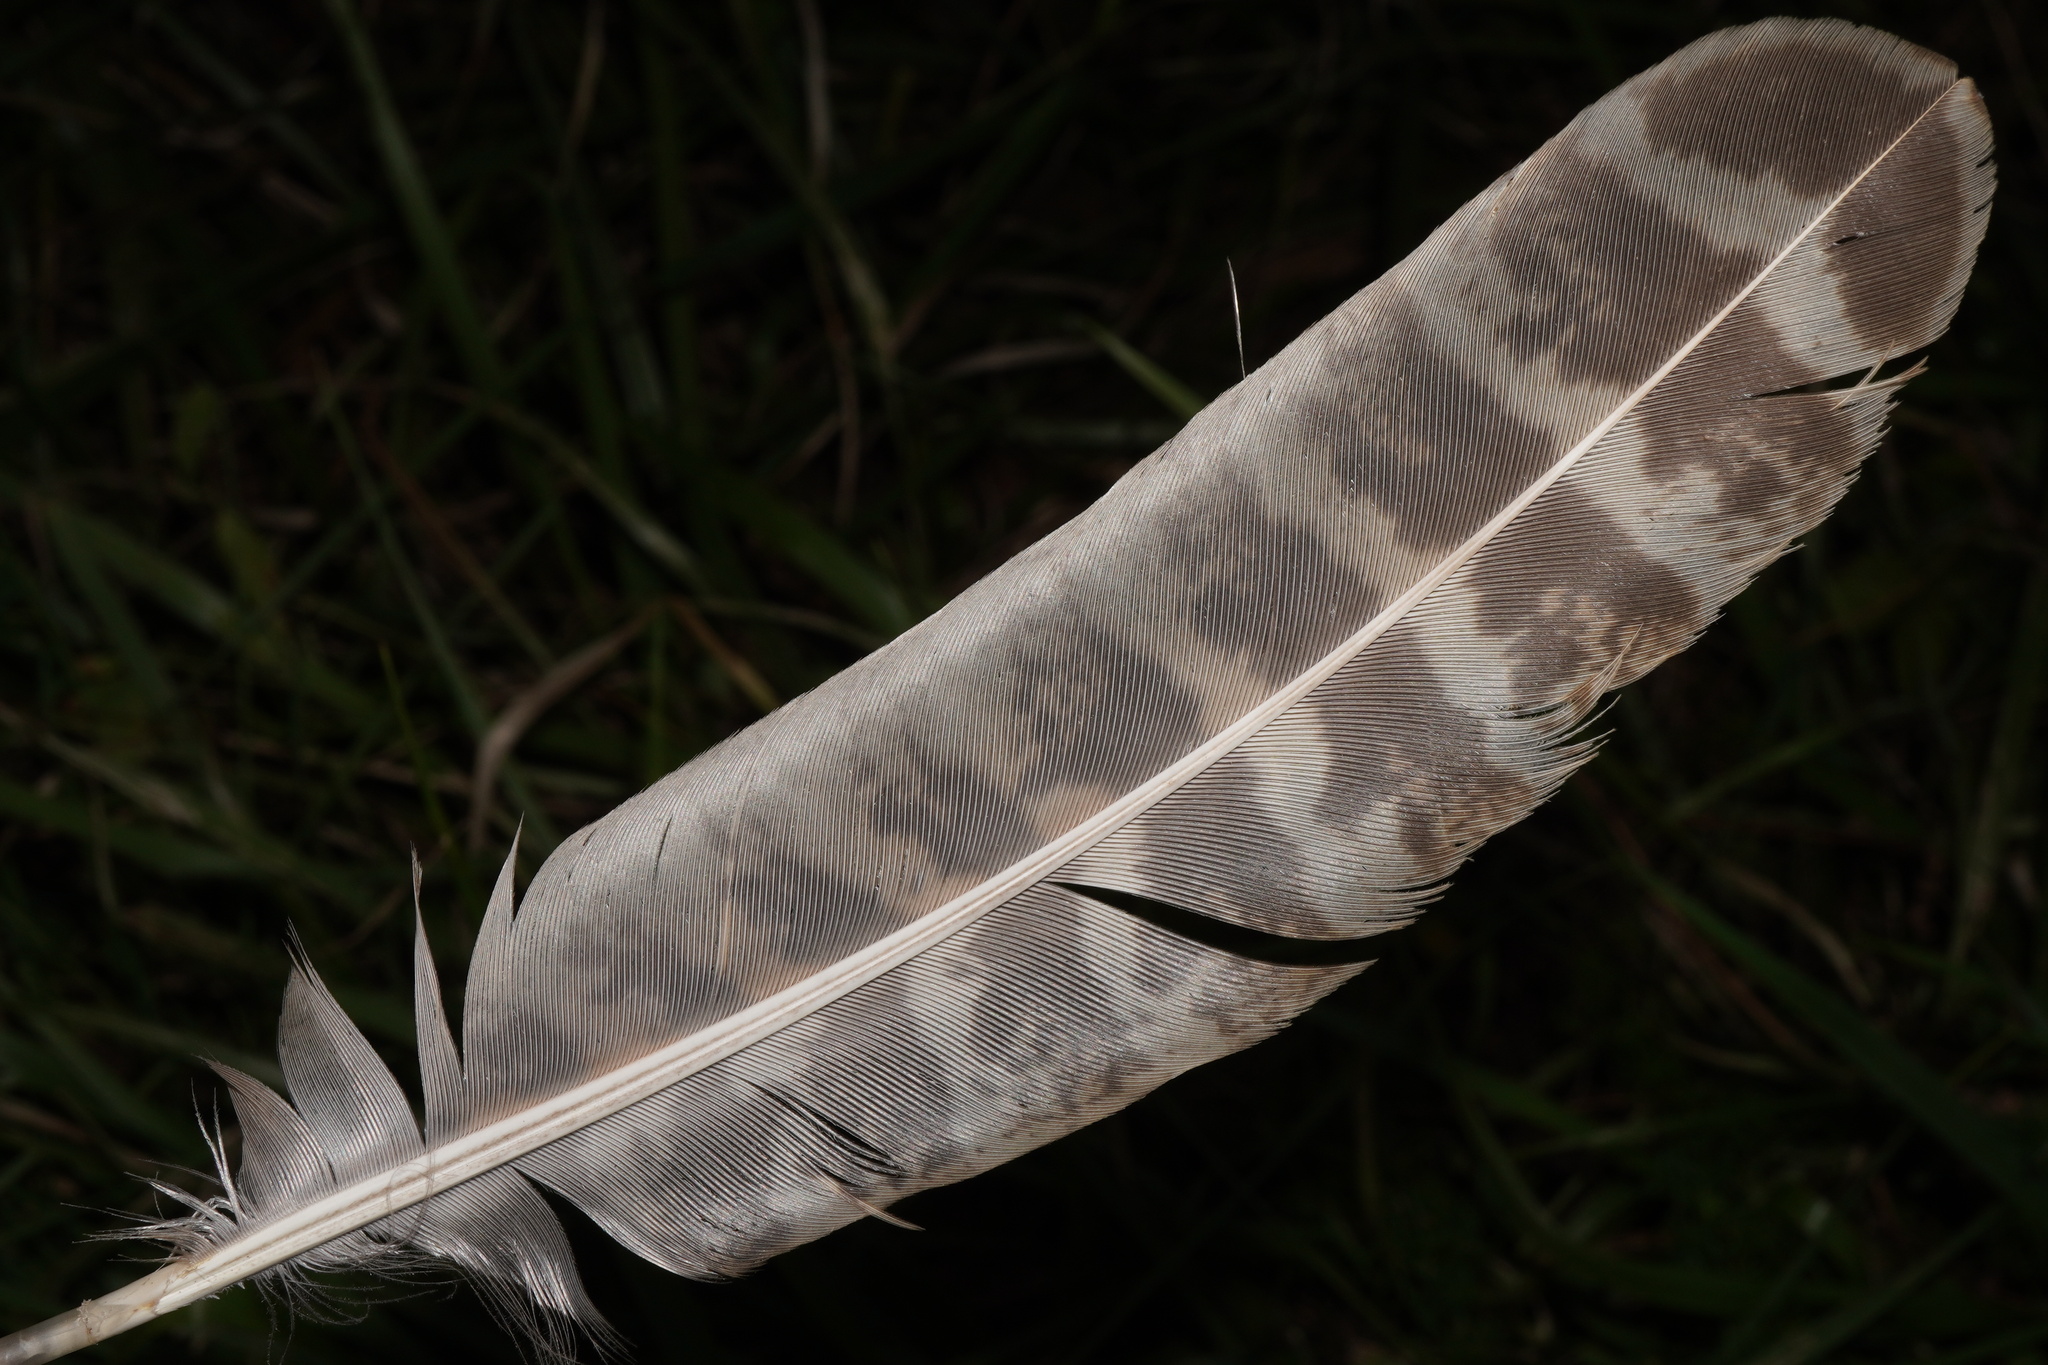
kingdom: Animalia
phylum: Chordata
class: Aves
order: Galliformes
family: Phasianidae
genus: Phasianus
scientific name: Phasianus colchicus
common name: Common pheasant
